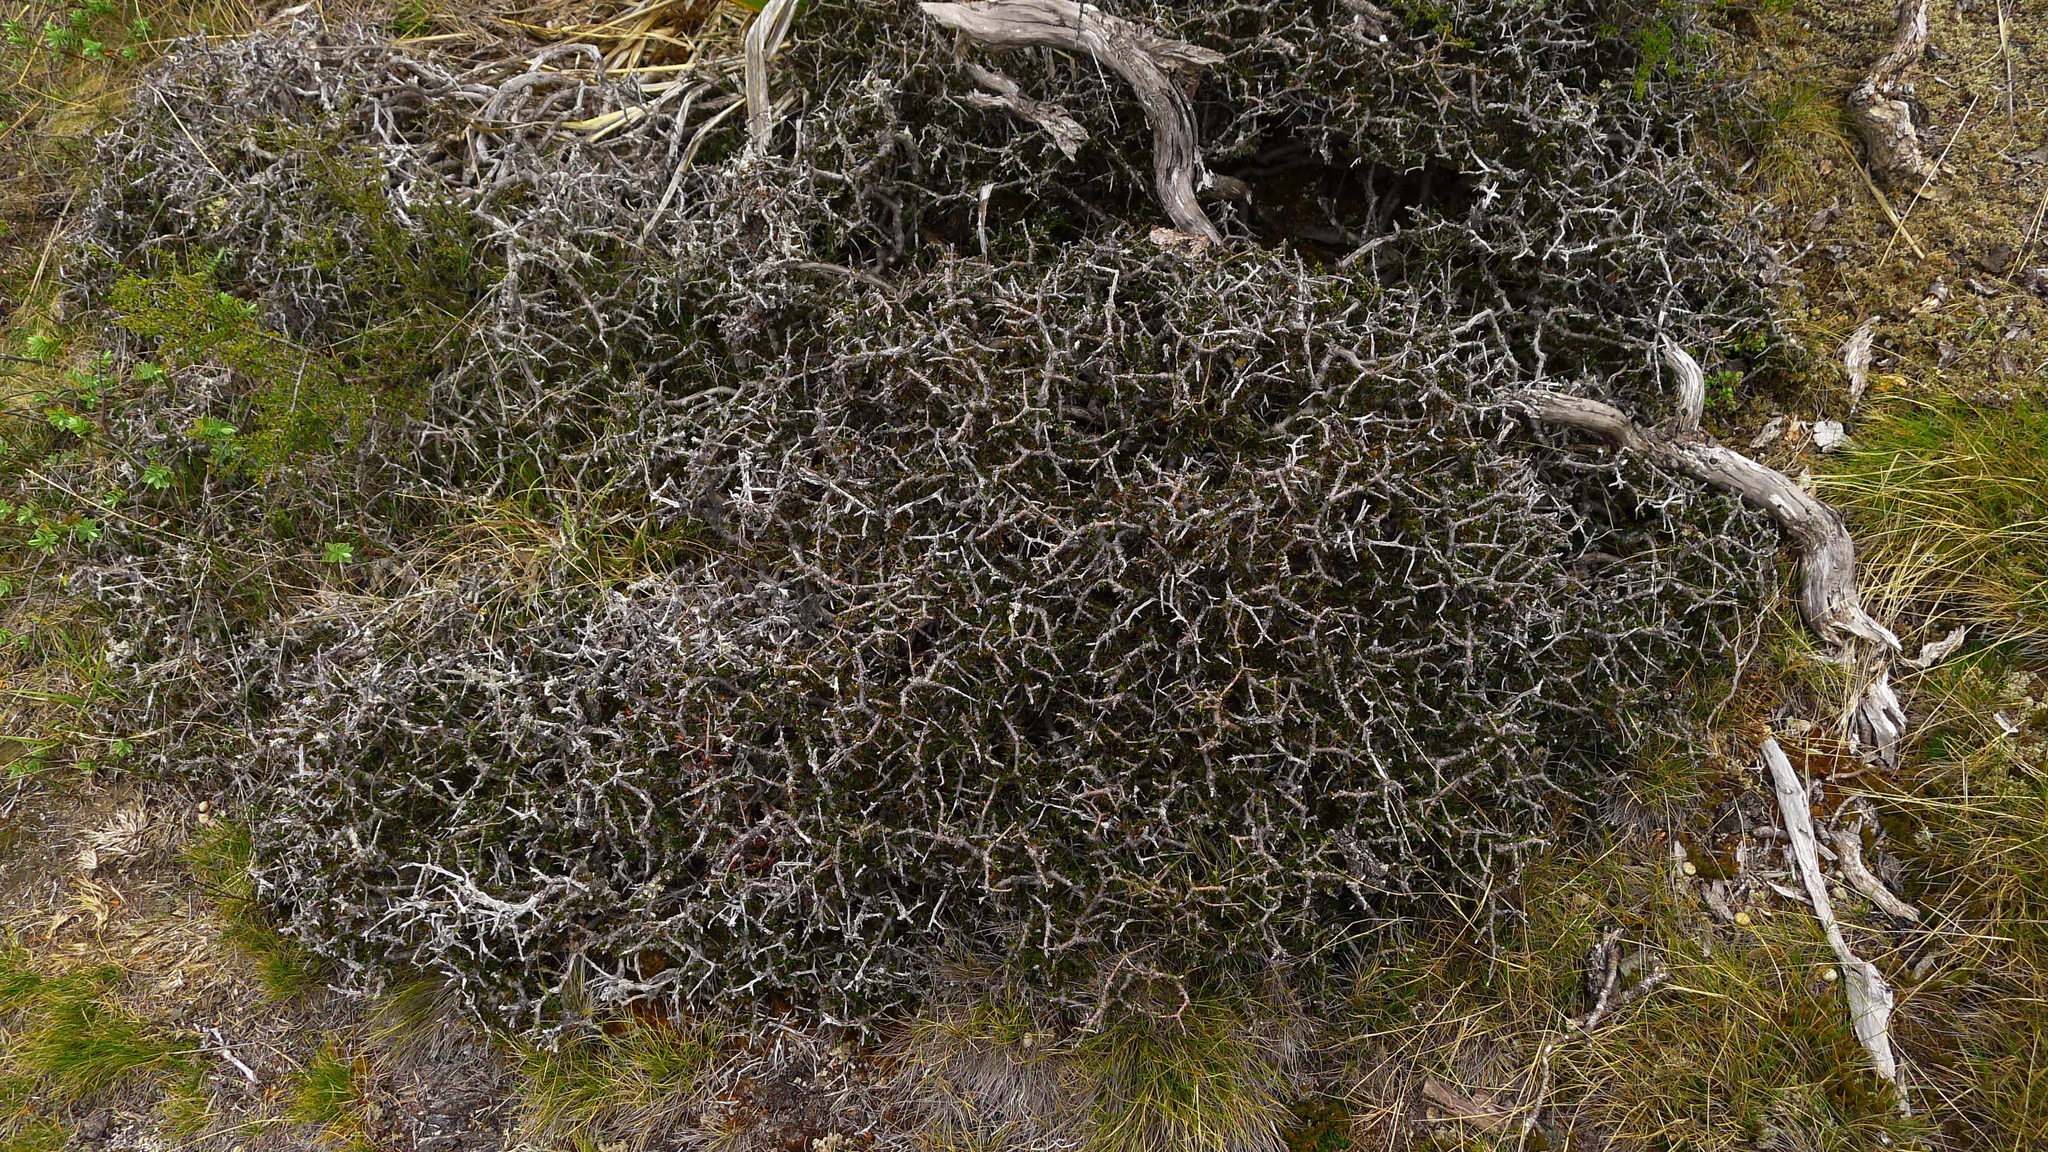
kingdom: Plantae
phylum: Tracheophyta
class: Magnoliopsida
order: Malpighiales
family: Violaceae
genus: Melicytus
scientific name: Melicytus alpinus
